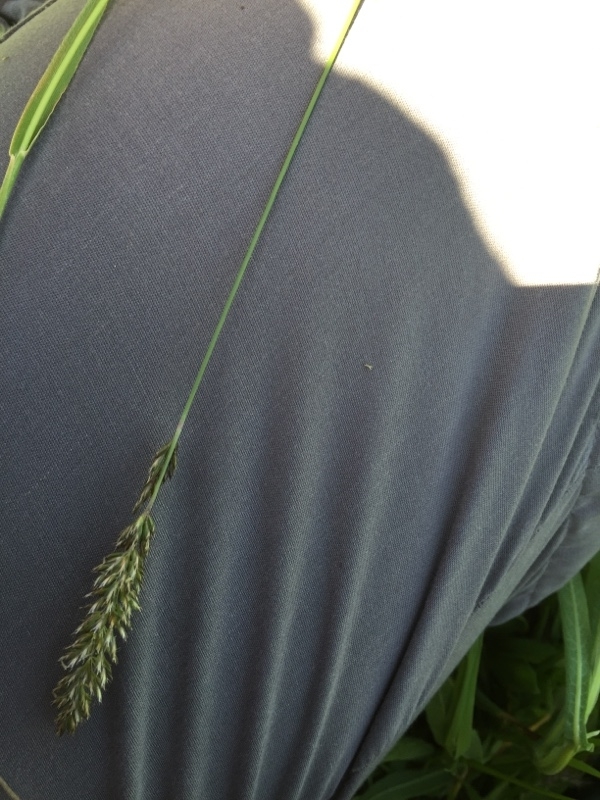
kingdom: Plantae
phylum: Tracheophyta
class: Liliopsida
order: Poales
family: Poaceae
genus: Koeleria
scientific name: Koeleria eriostachya
